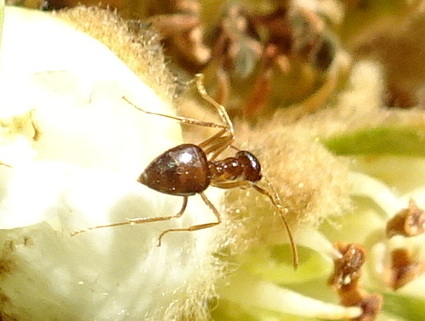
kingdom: Animalia
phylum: Arthropoda
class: Insecta
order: Hymenoptera
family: Formicidae
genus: Prenolepis
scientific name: Prenolepis imparis
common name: Small honey ant
